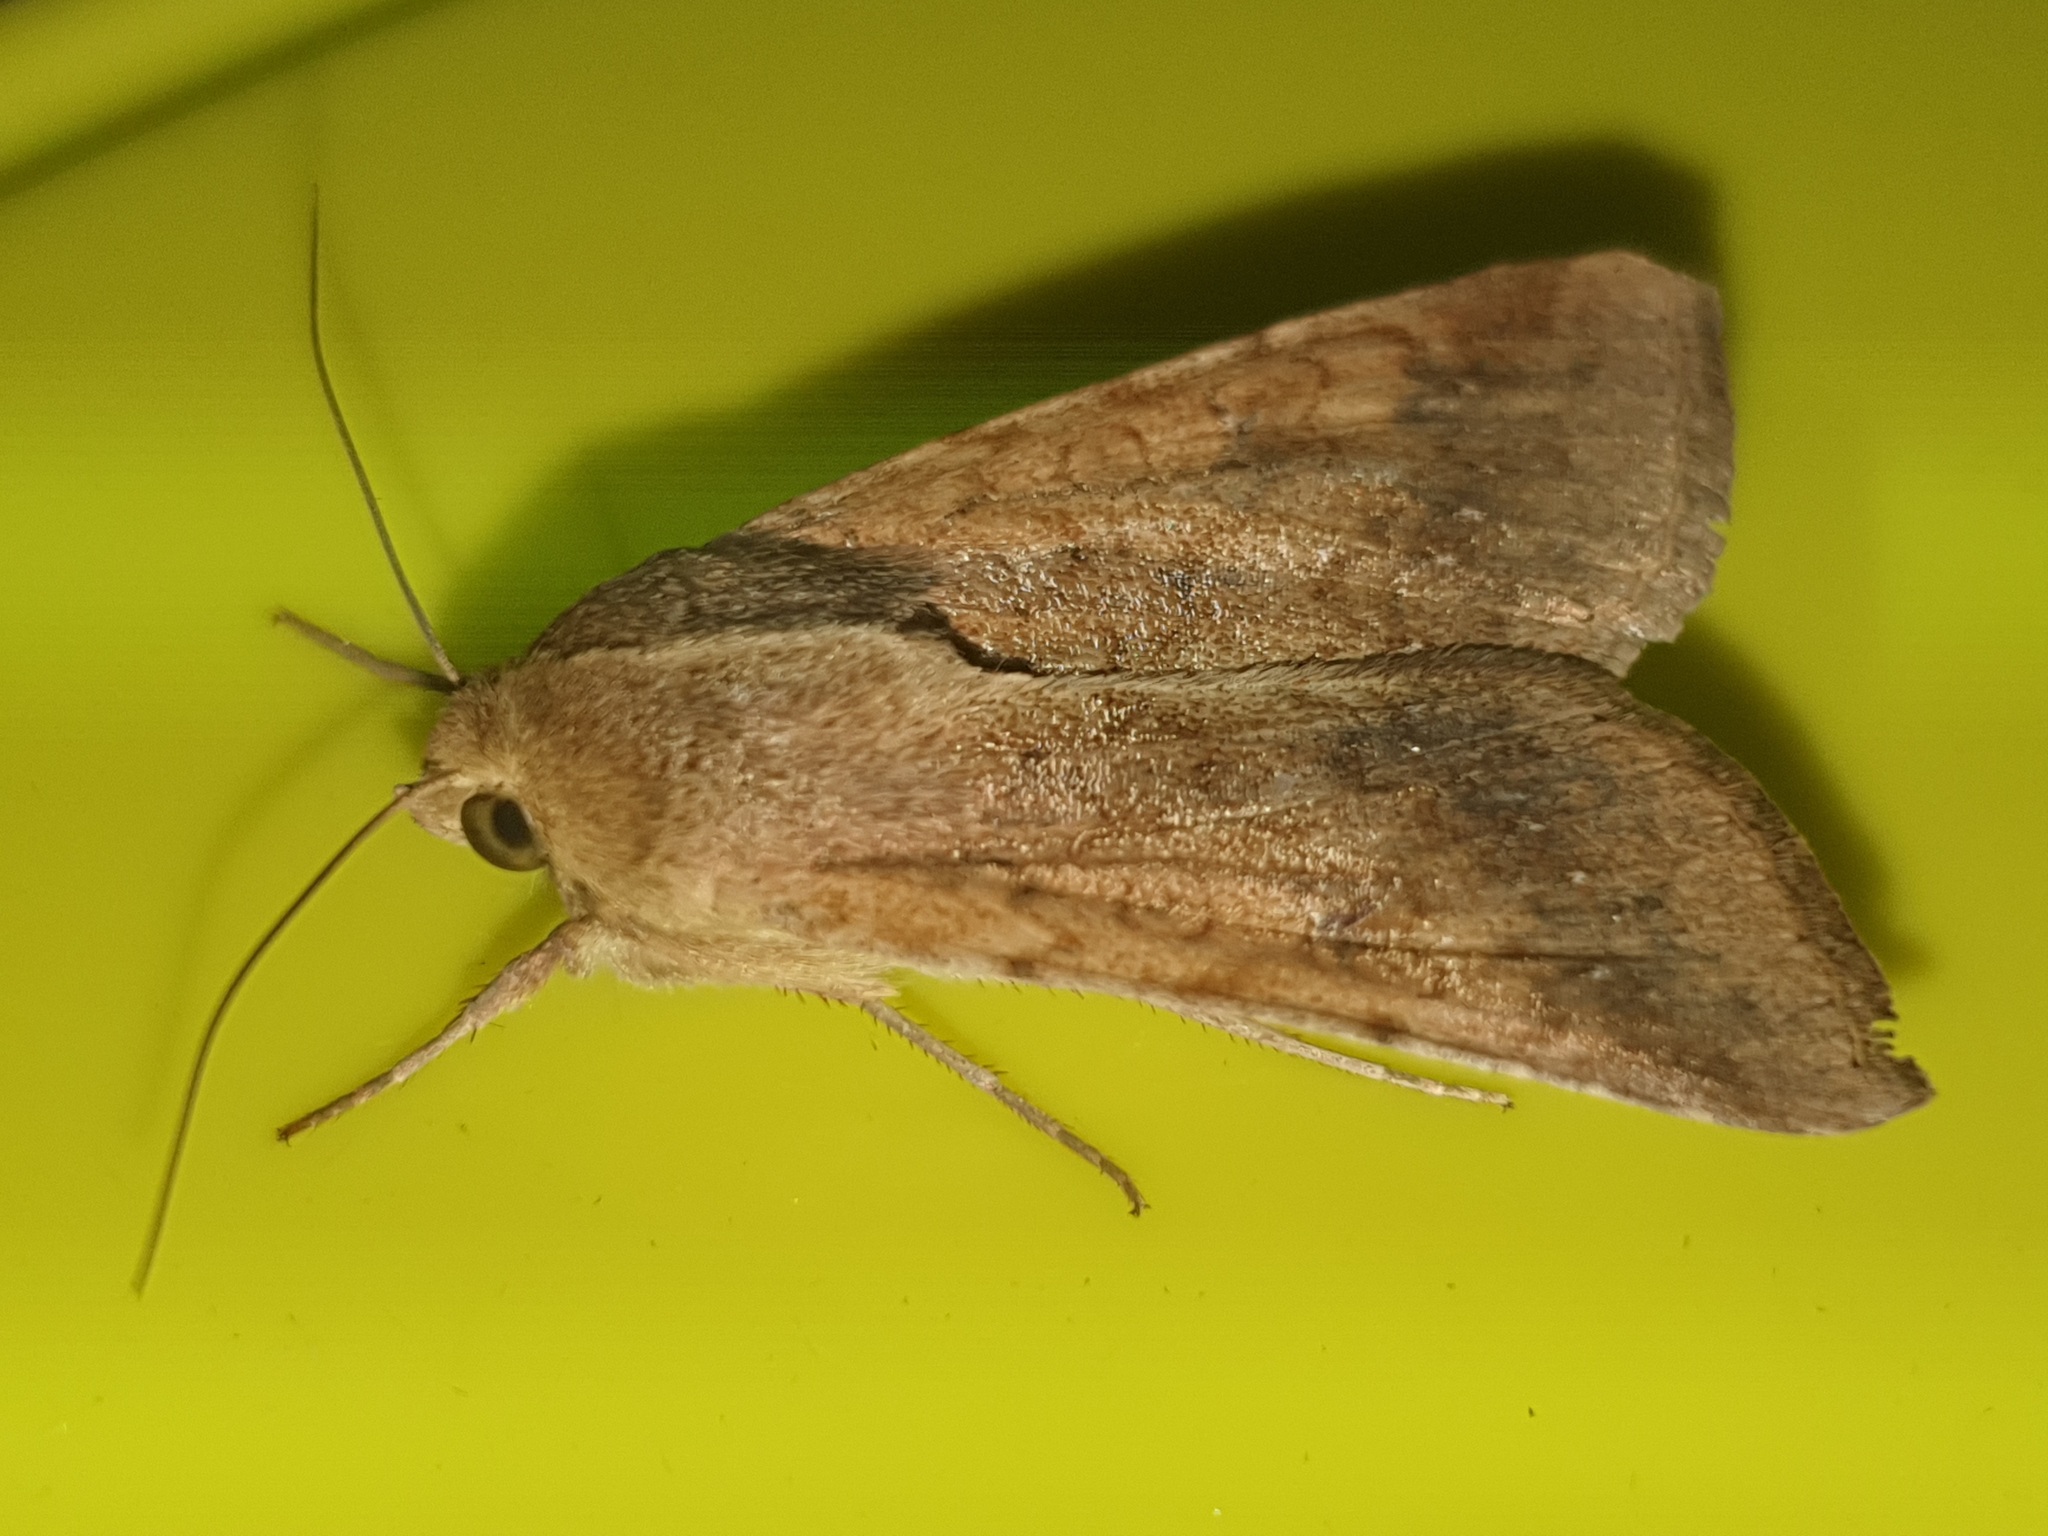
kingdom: Animalia
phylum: Arthropoda
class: Insecta
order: Lepidoptera
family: Noctuidae
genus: Helicoverpa
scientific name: Helicoverpa armigera
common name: Cotton bollworm
